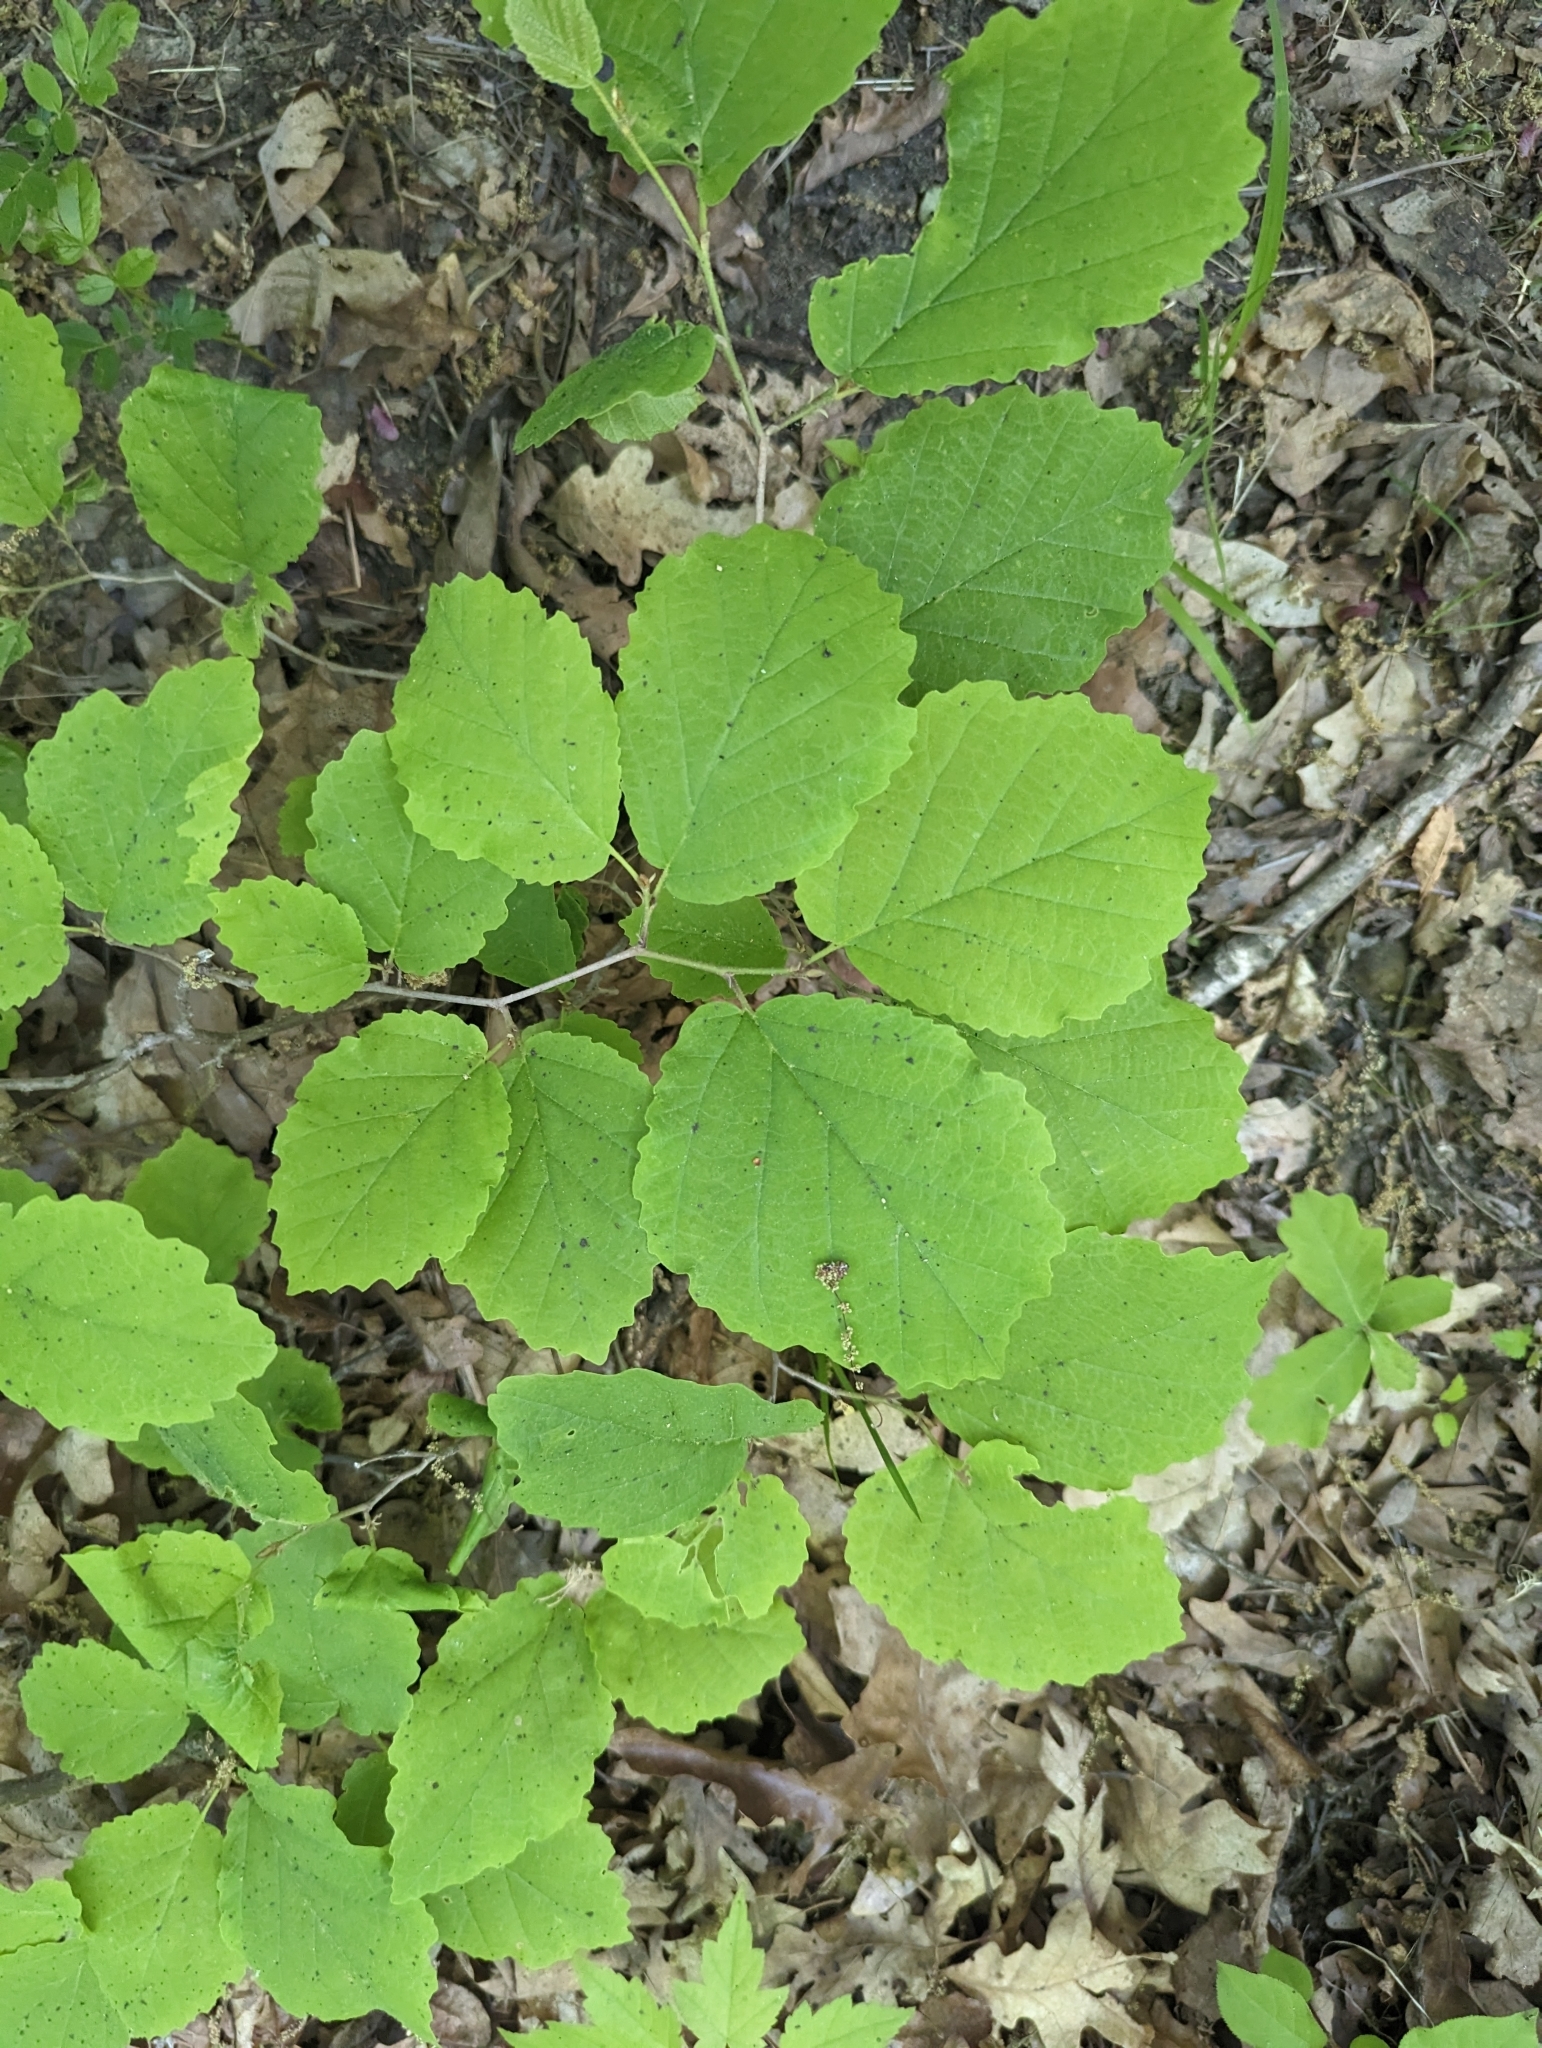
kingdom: Plantae
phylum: Tracheophyta
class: Magnoliopsida
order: Saxifragales
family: Hamamelidaceae
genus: Hamamelis
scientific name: Hamamelis virginiana
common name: Witch-hazel
